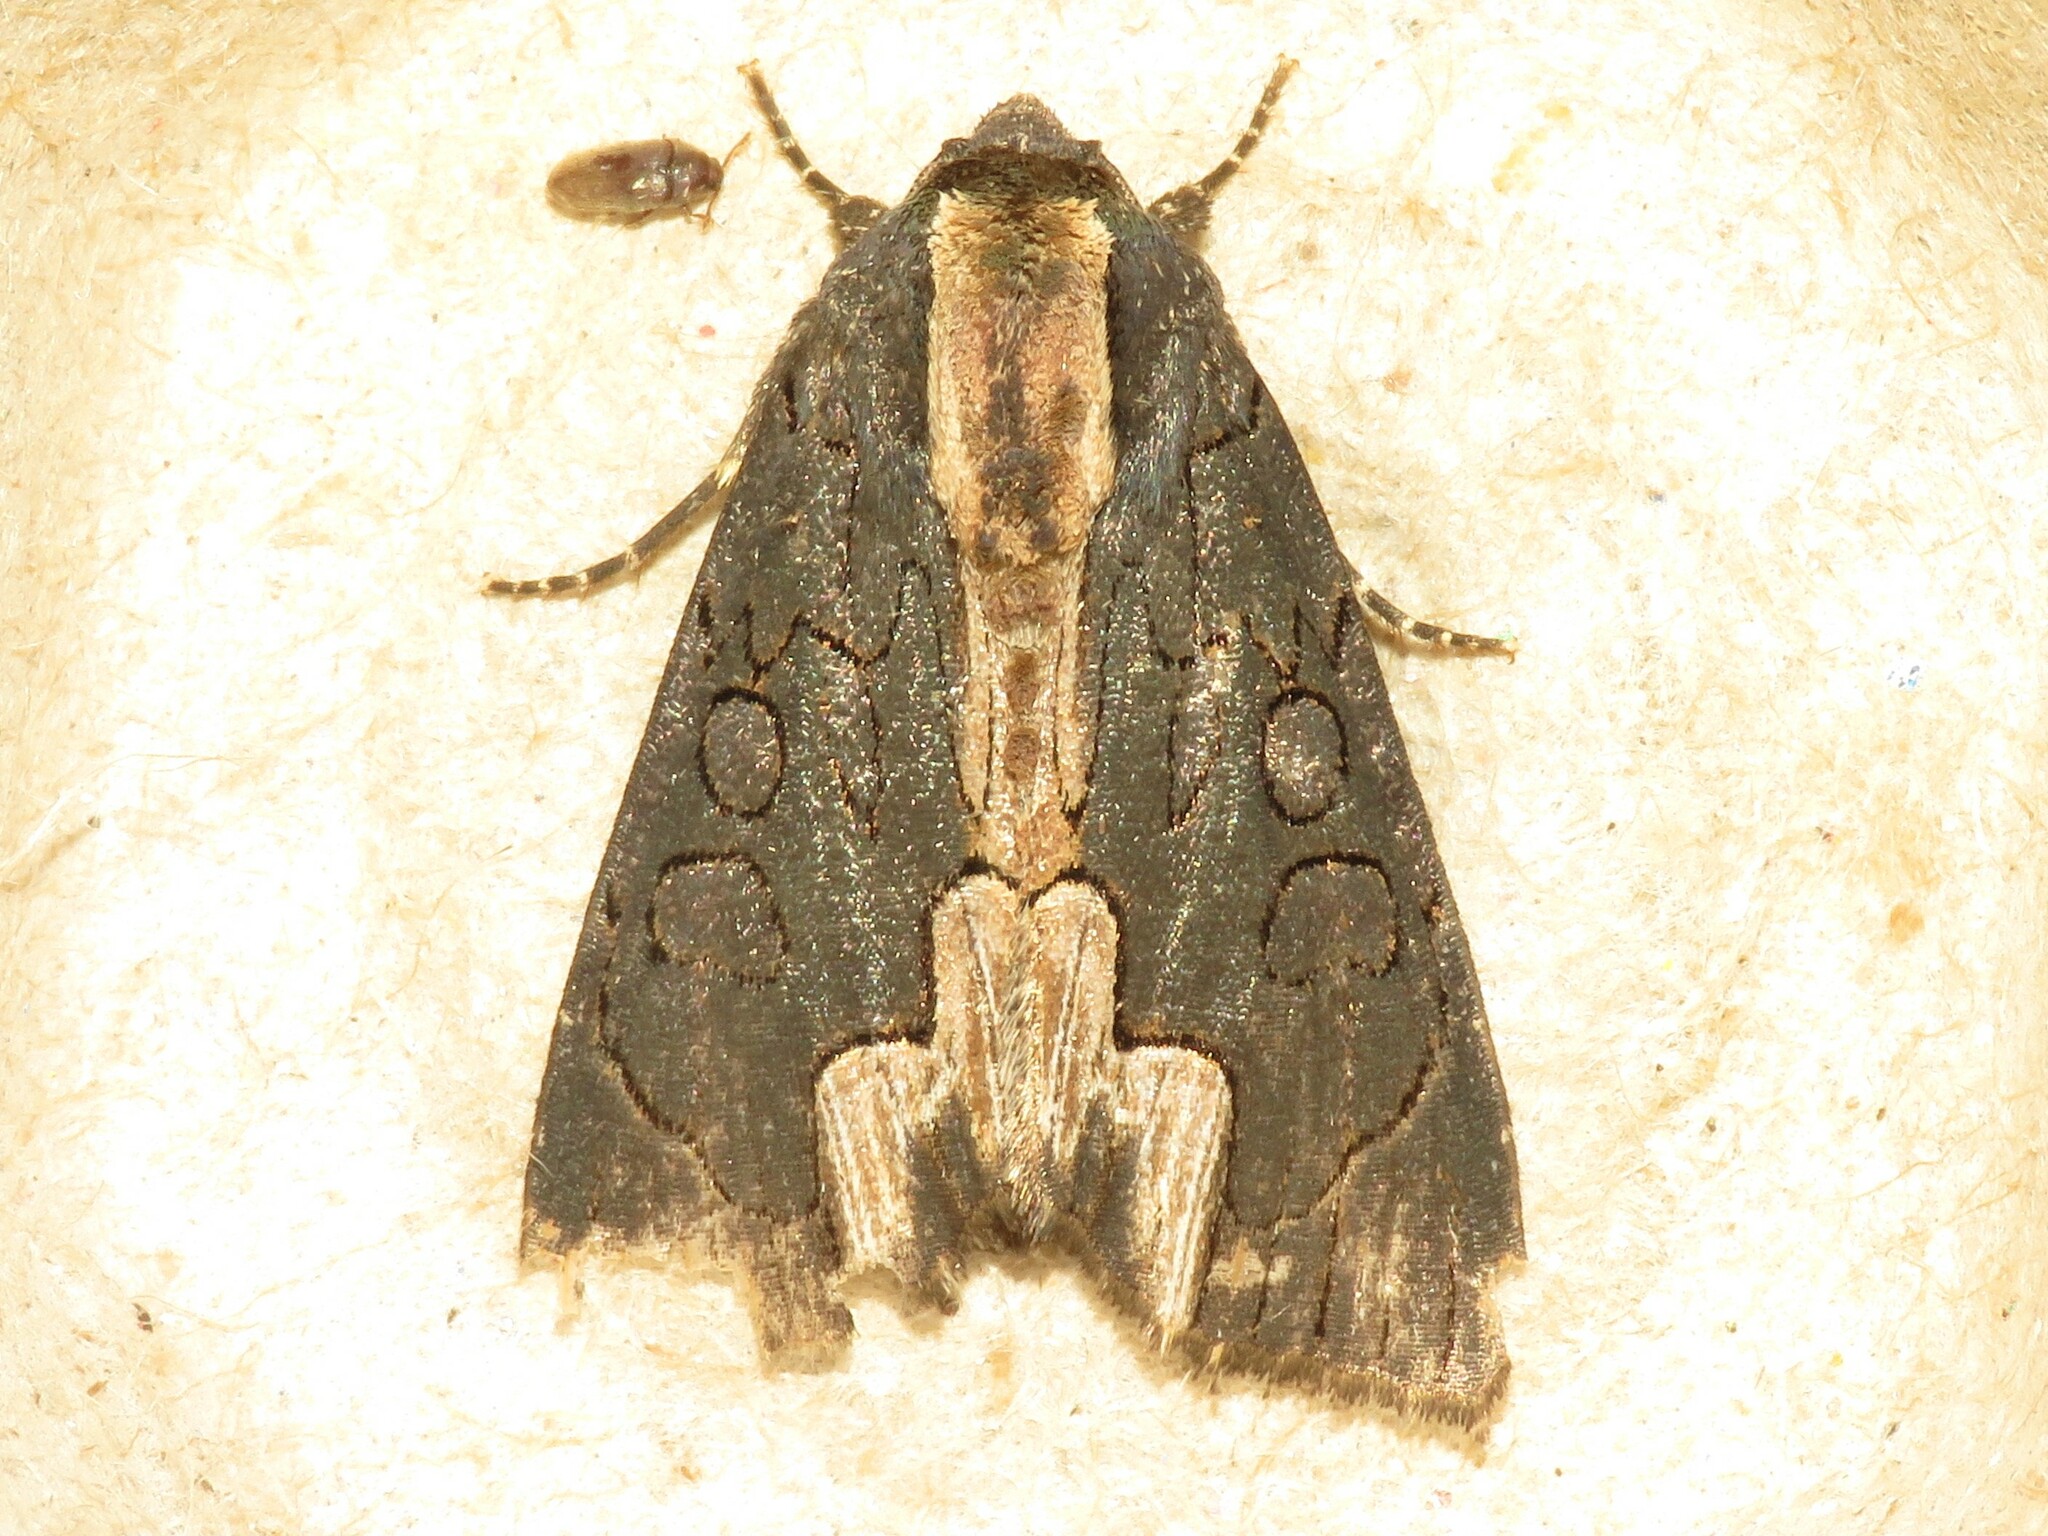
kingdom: Animalia
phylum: Arthropoda
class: Insecta
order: Lepidoptera
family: Noctuidae
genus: Dypterygia
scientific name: Dypterygia rozmani
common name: American bird's-wing
